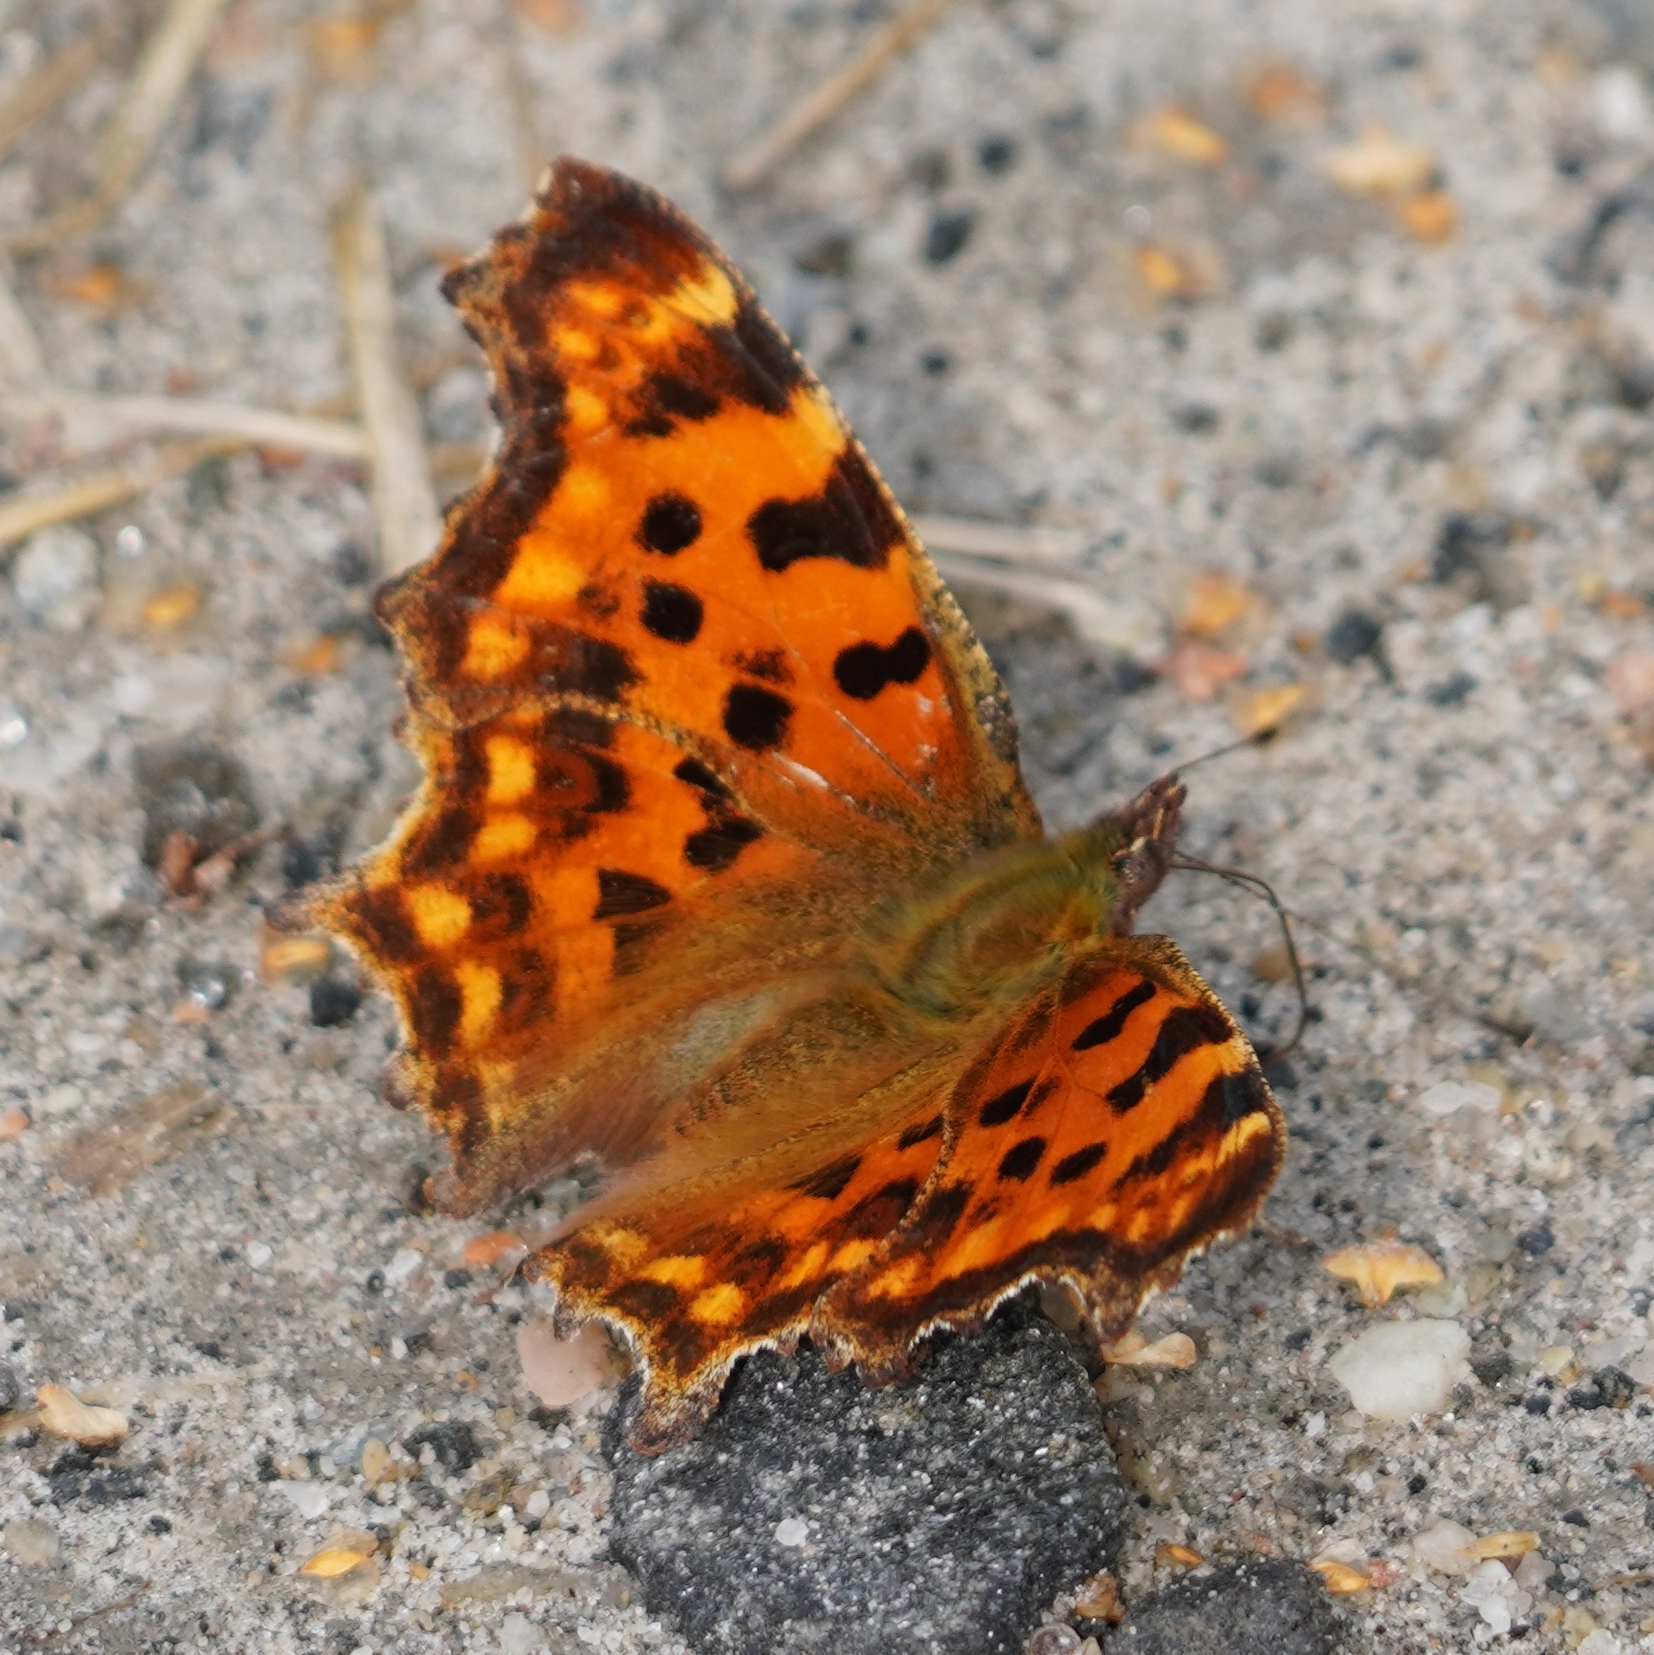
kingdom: Animalia
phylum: Arthropoda
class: Insecta
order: Lepidoptera
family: Nymphalidae
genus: Polygonia
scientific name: Polygonia c-album
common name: Comma
